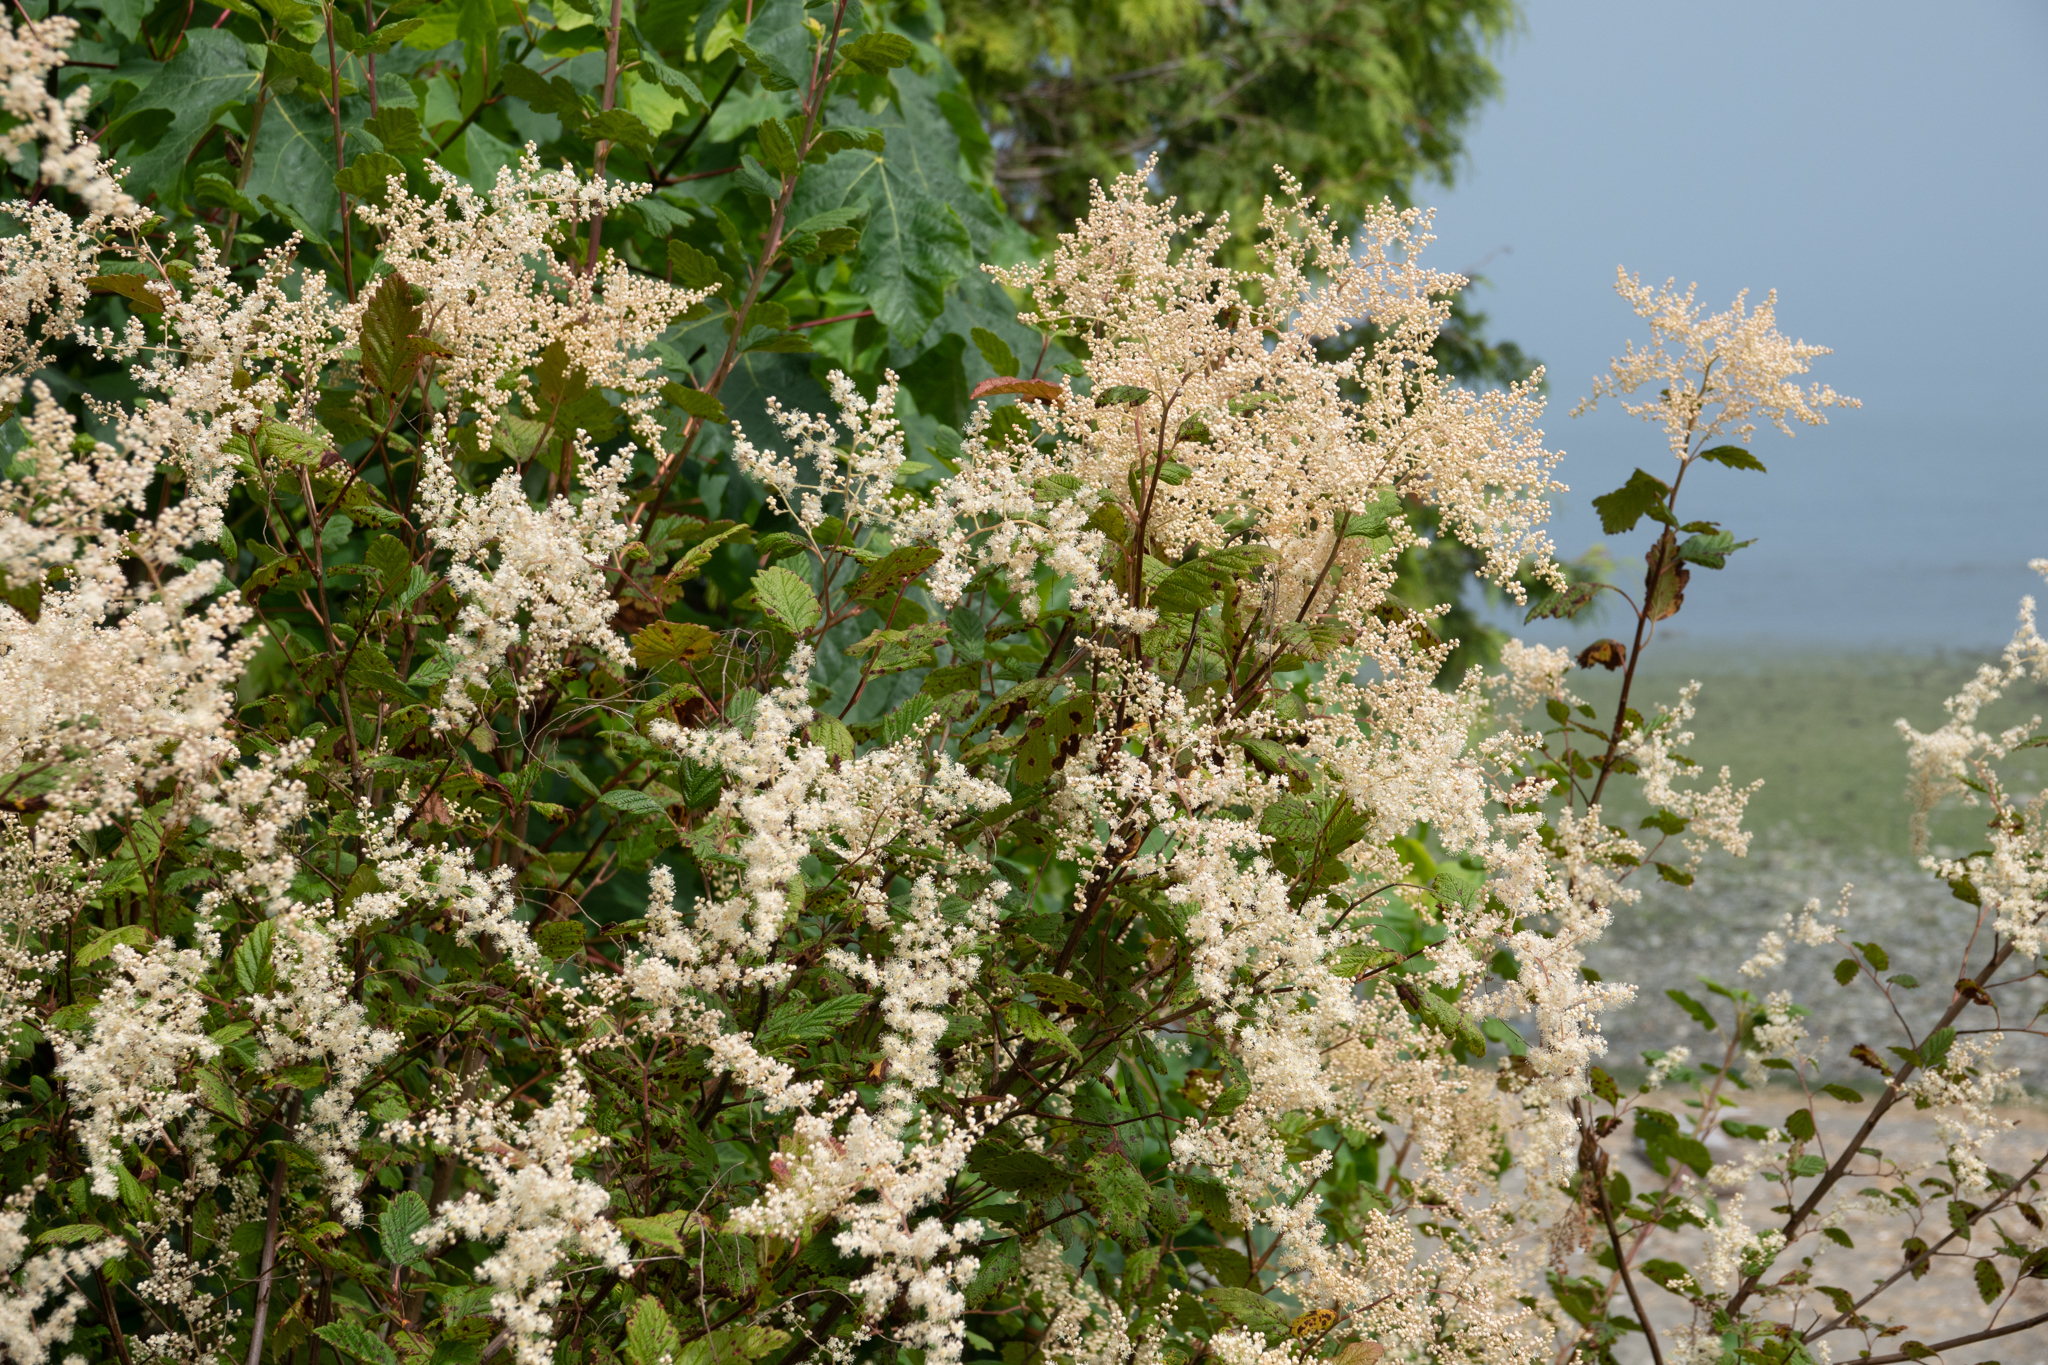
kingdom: Plantae
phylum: Tracheophyta
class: Magnoliopsida
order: Rosales
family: Rosaceae
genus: Holodiscus
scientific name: Holodiscus discolor
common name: Oceanspray
